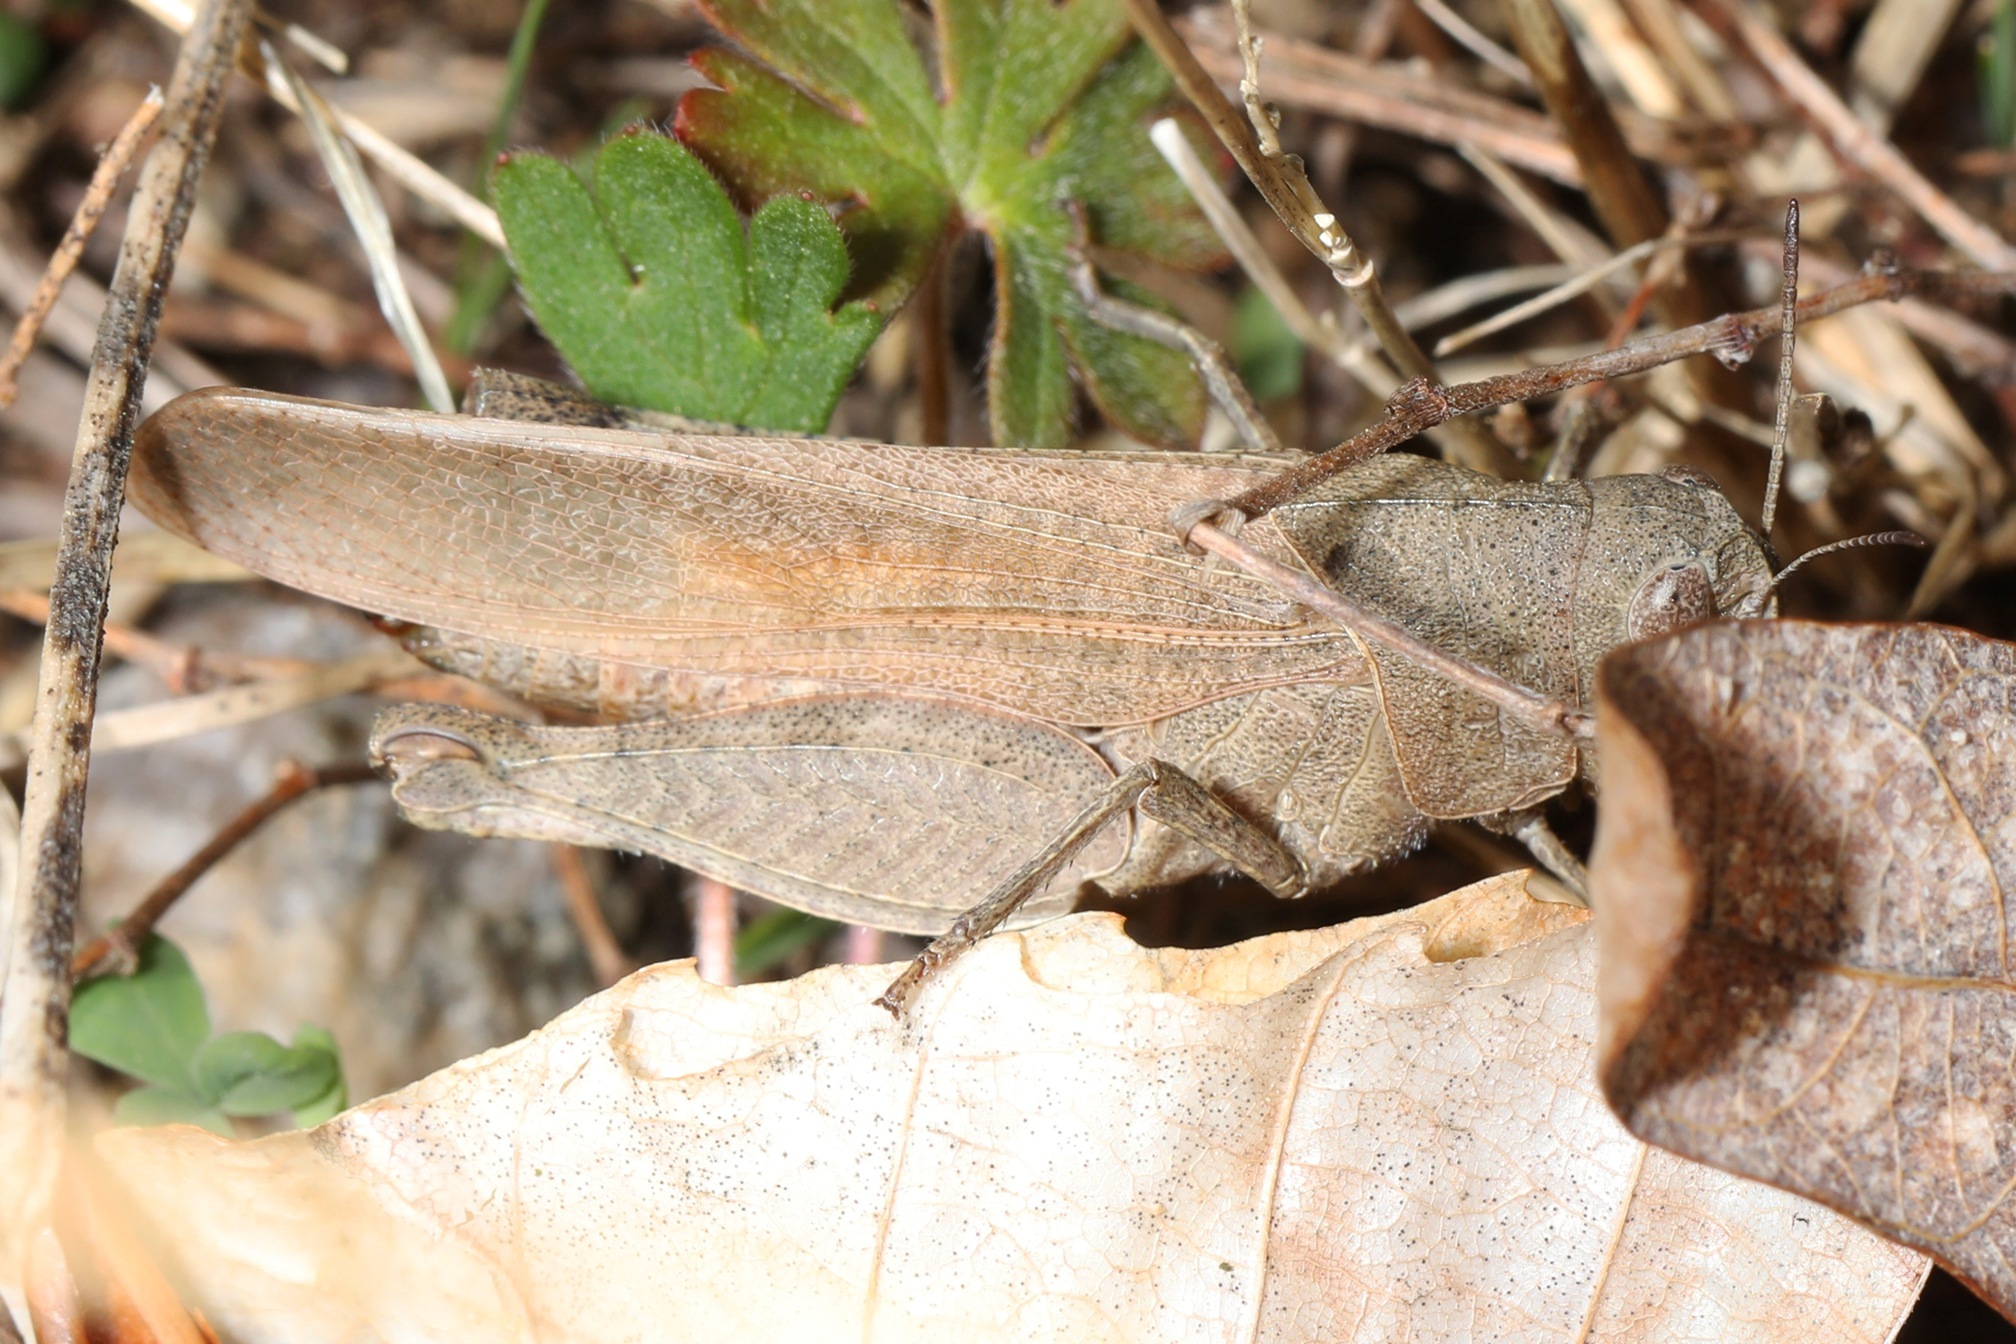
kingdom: Animalia
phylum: Arthropoda
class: Insecta
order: Orthoptera
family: Acrididae
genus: Arphia
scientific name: Arphia sulphurea
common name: Spring yellow-winged locust
